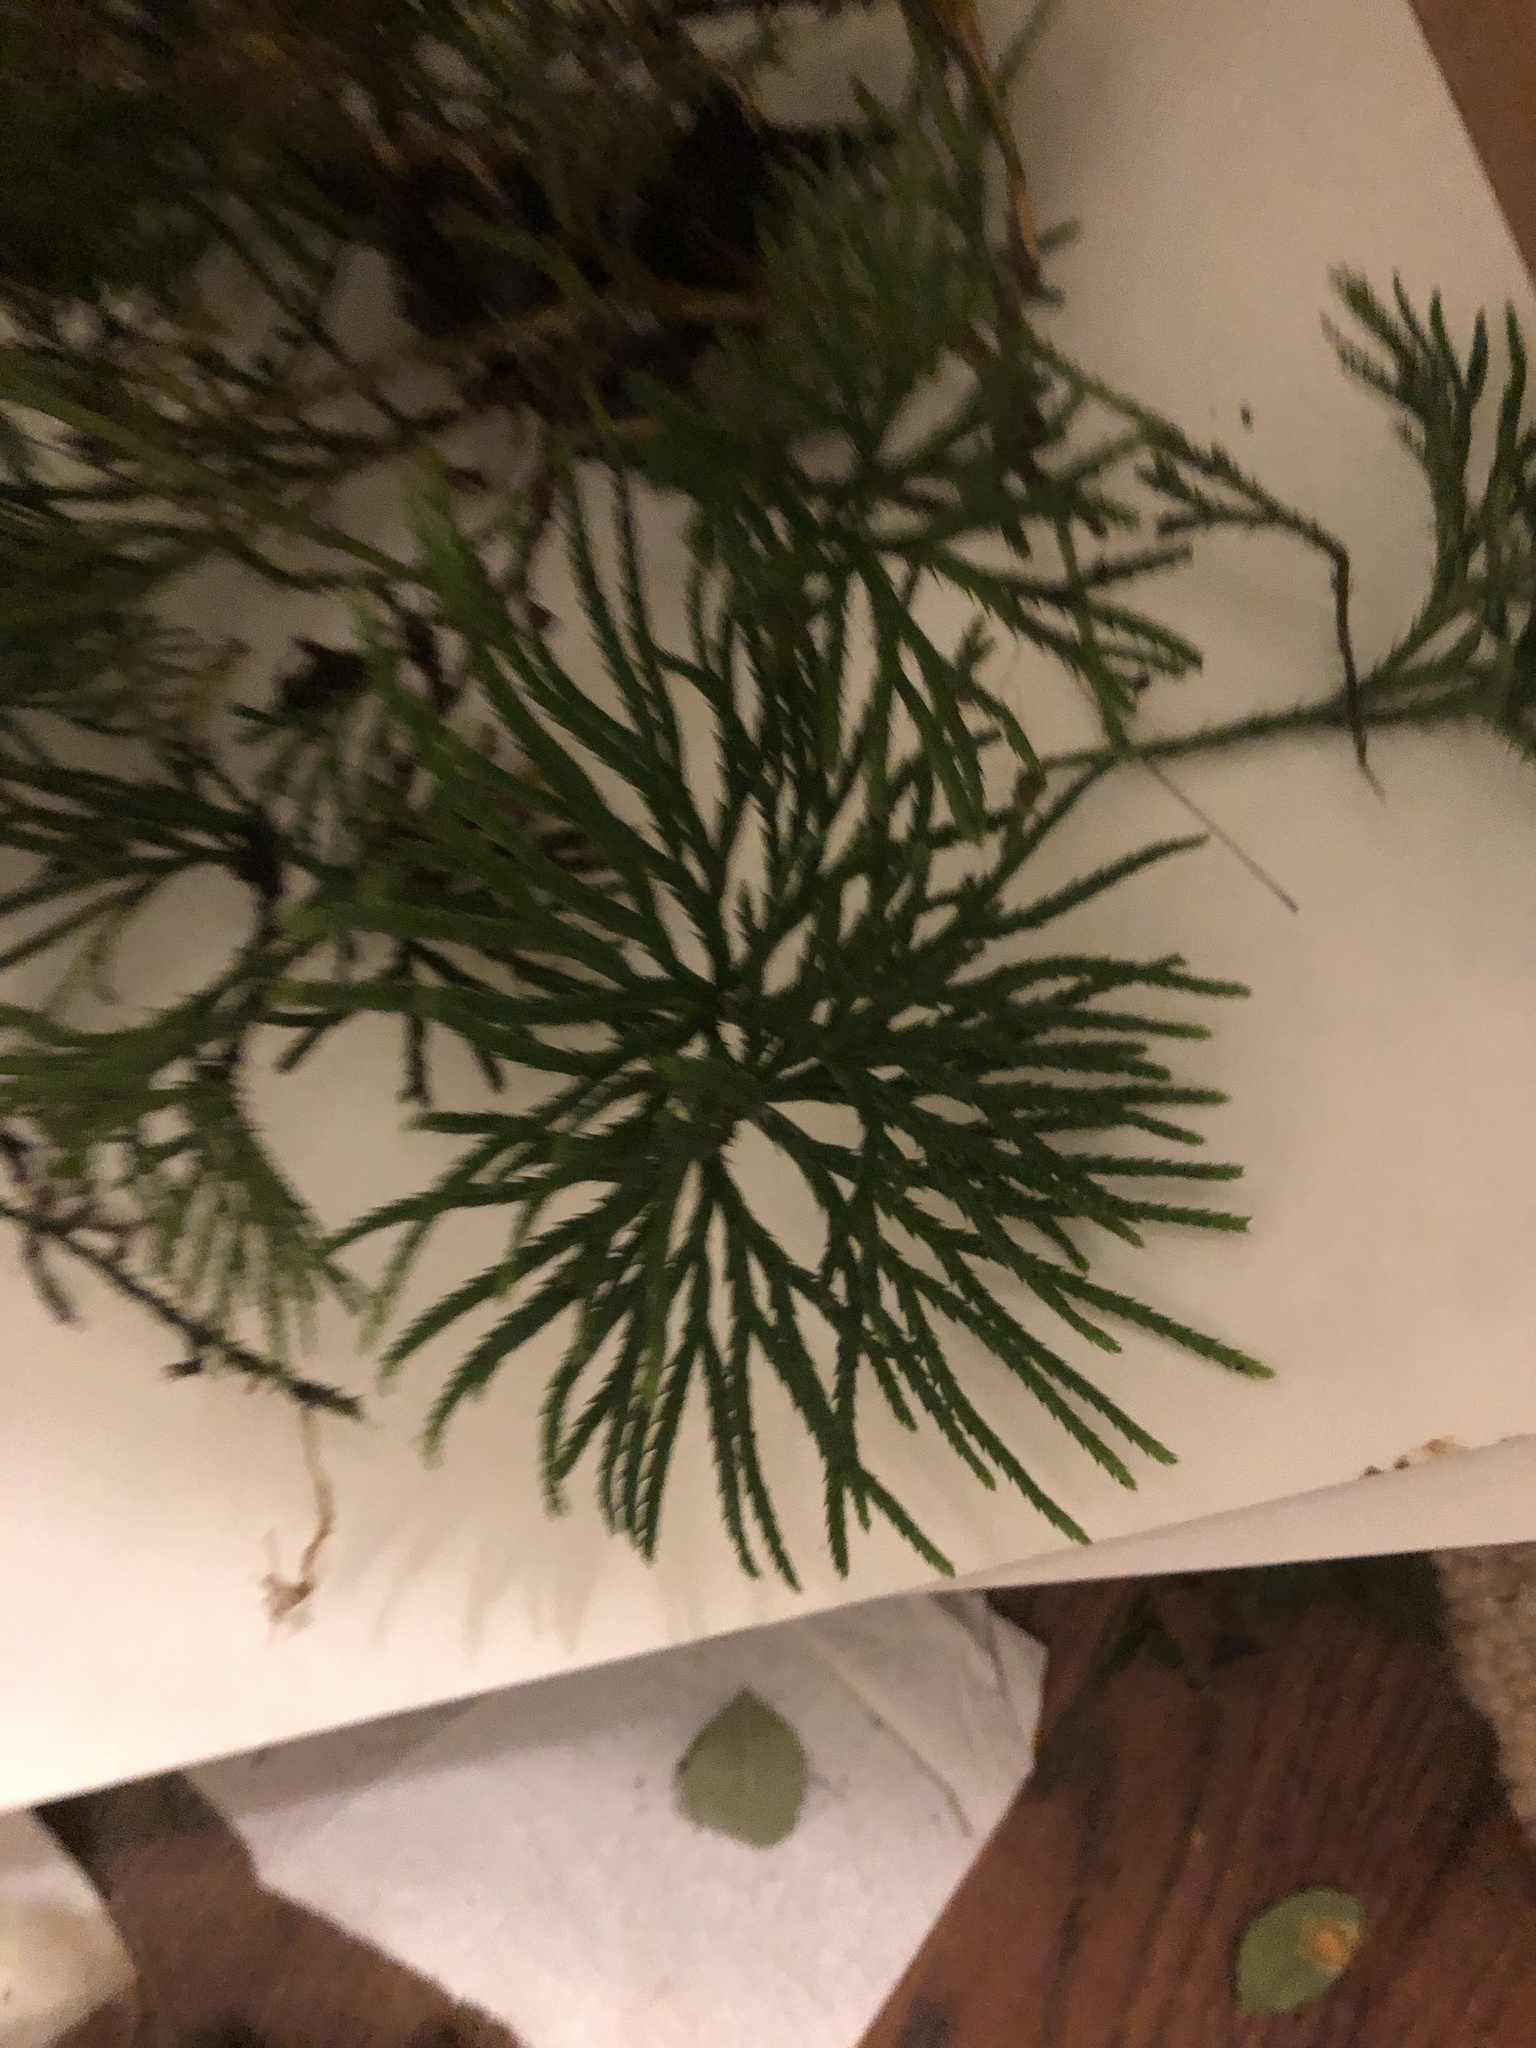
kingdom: Plantae
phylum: Tracheophyta
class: Lycopodiopsida
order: Lycopodiales
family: Lycopodiaceae
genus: Diphasiastrum
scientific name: Diphasiastrum digitatum
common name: Southern running-pine
